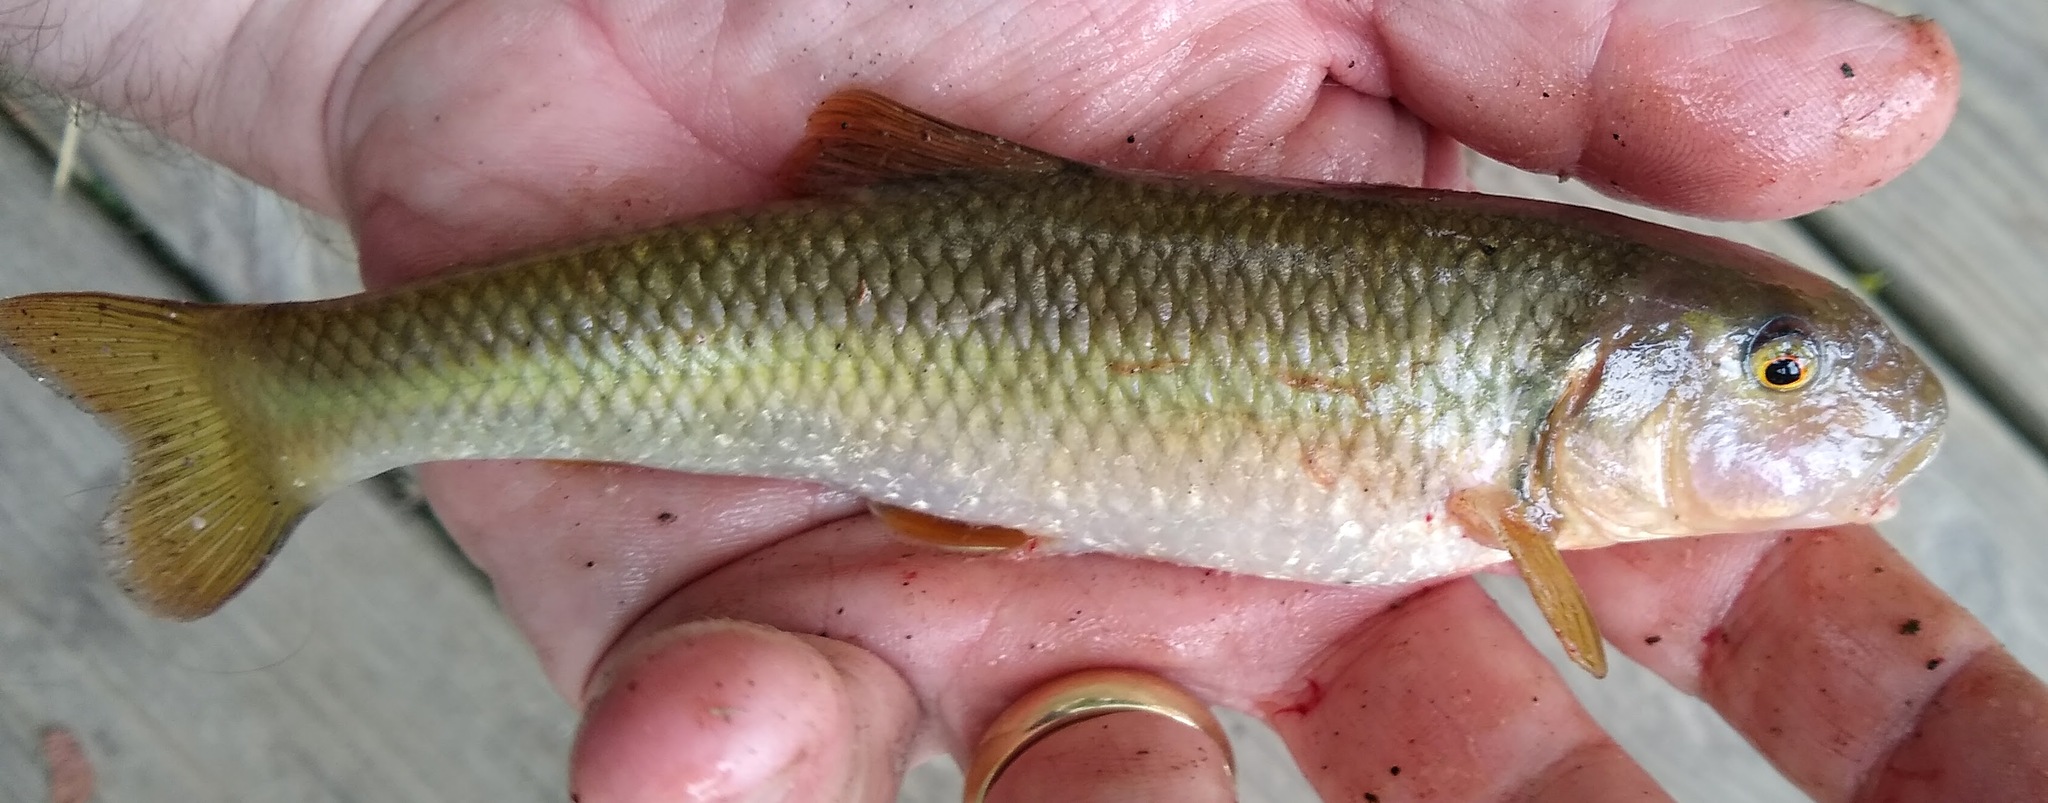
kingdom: Animalia
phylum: Chordata
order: Cypriniformes
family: Cyprinidae
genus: Nocomis
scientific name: Nocomis micropogon
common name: River chub
